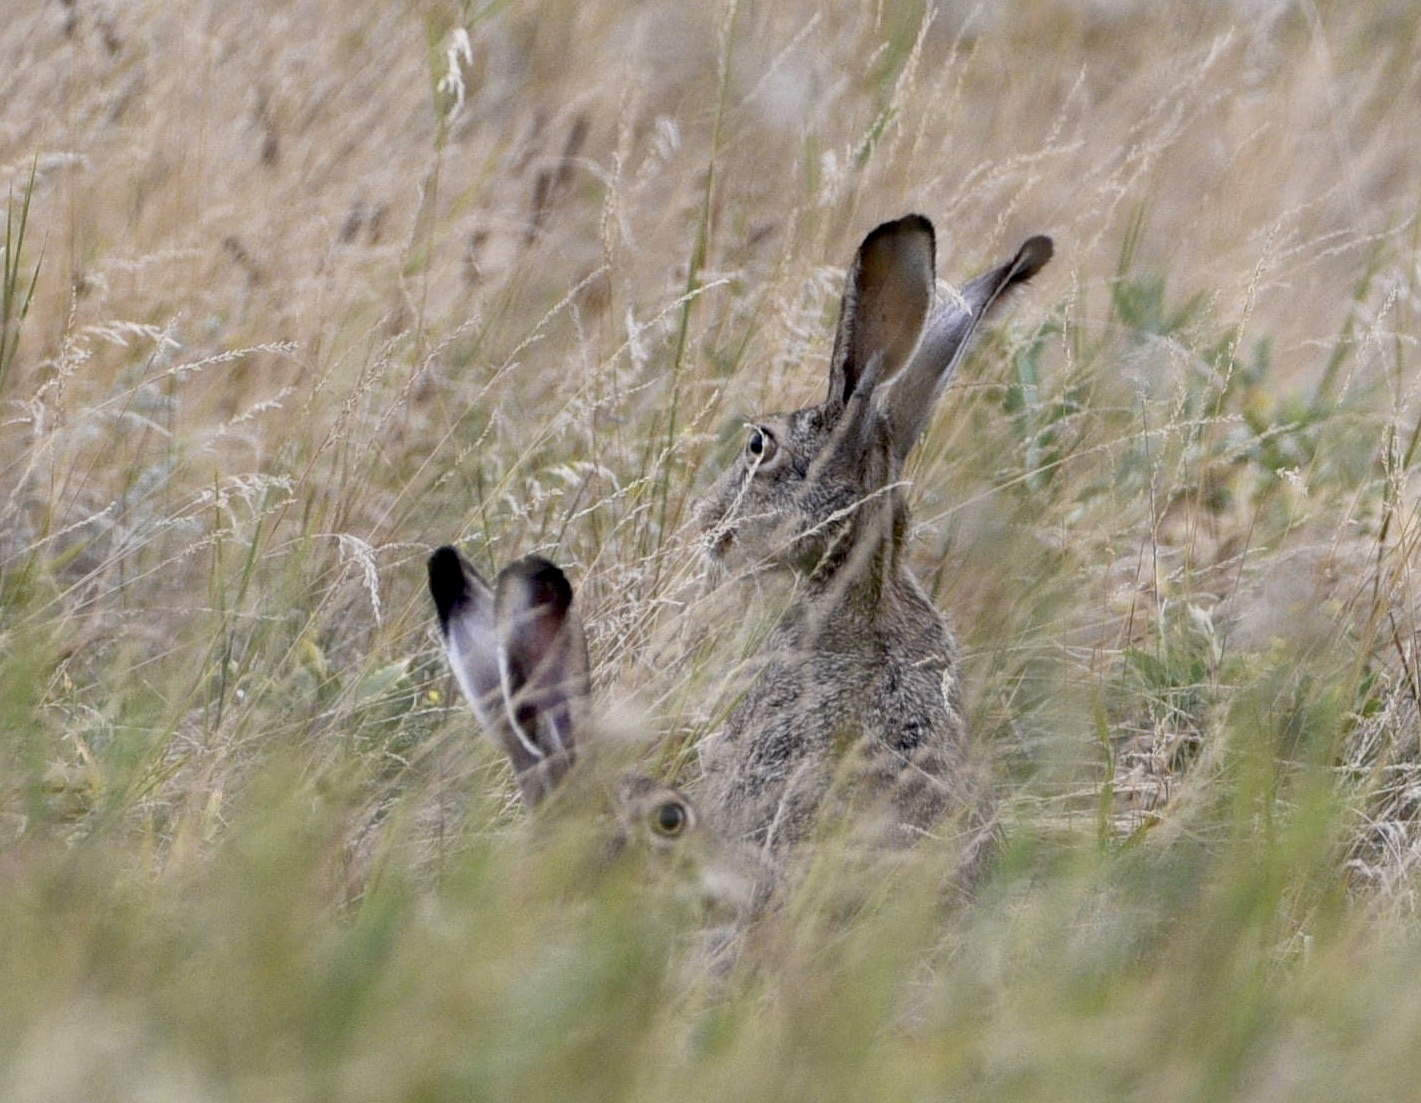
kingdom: Animalia
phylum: Chordata
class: Mammalia
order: Lagomorpha
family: Leporidae
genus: Lepus
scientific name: Lepus europaeus
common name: European hare
